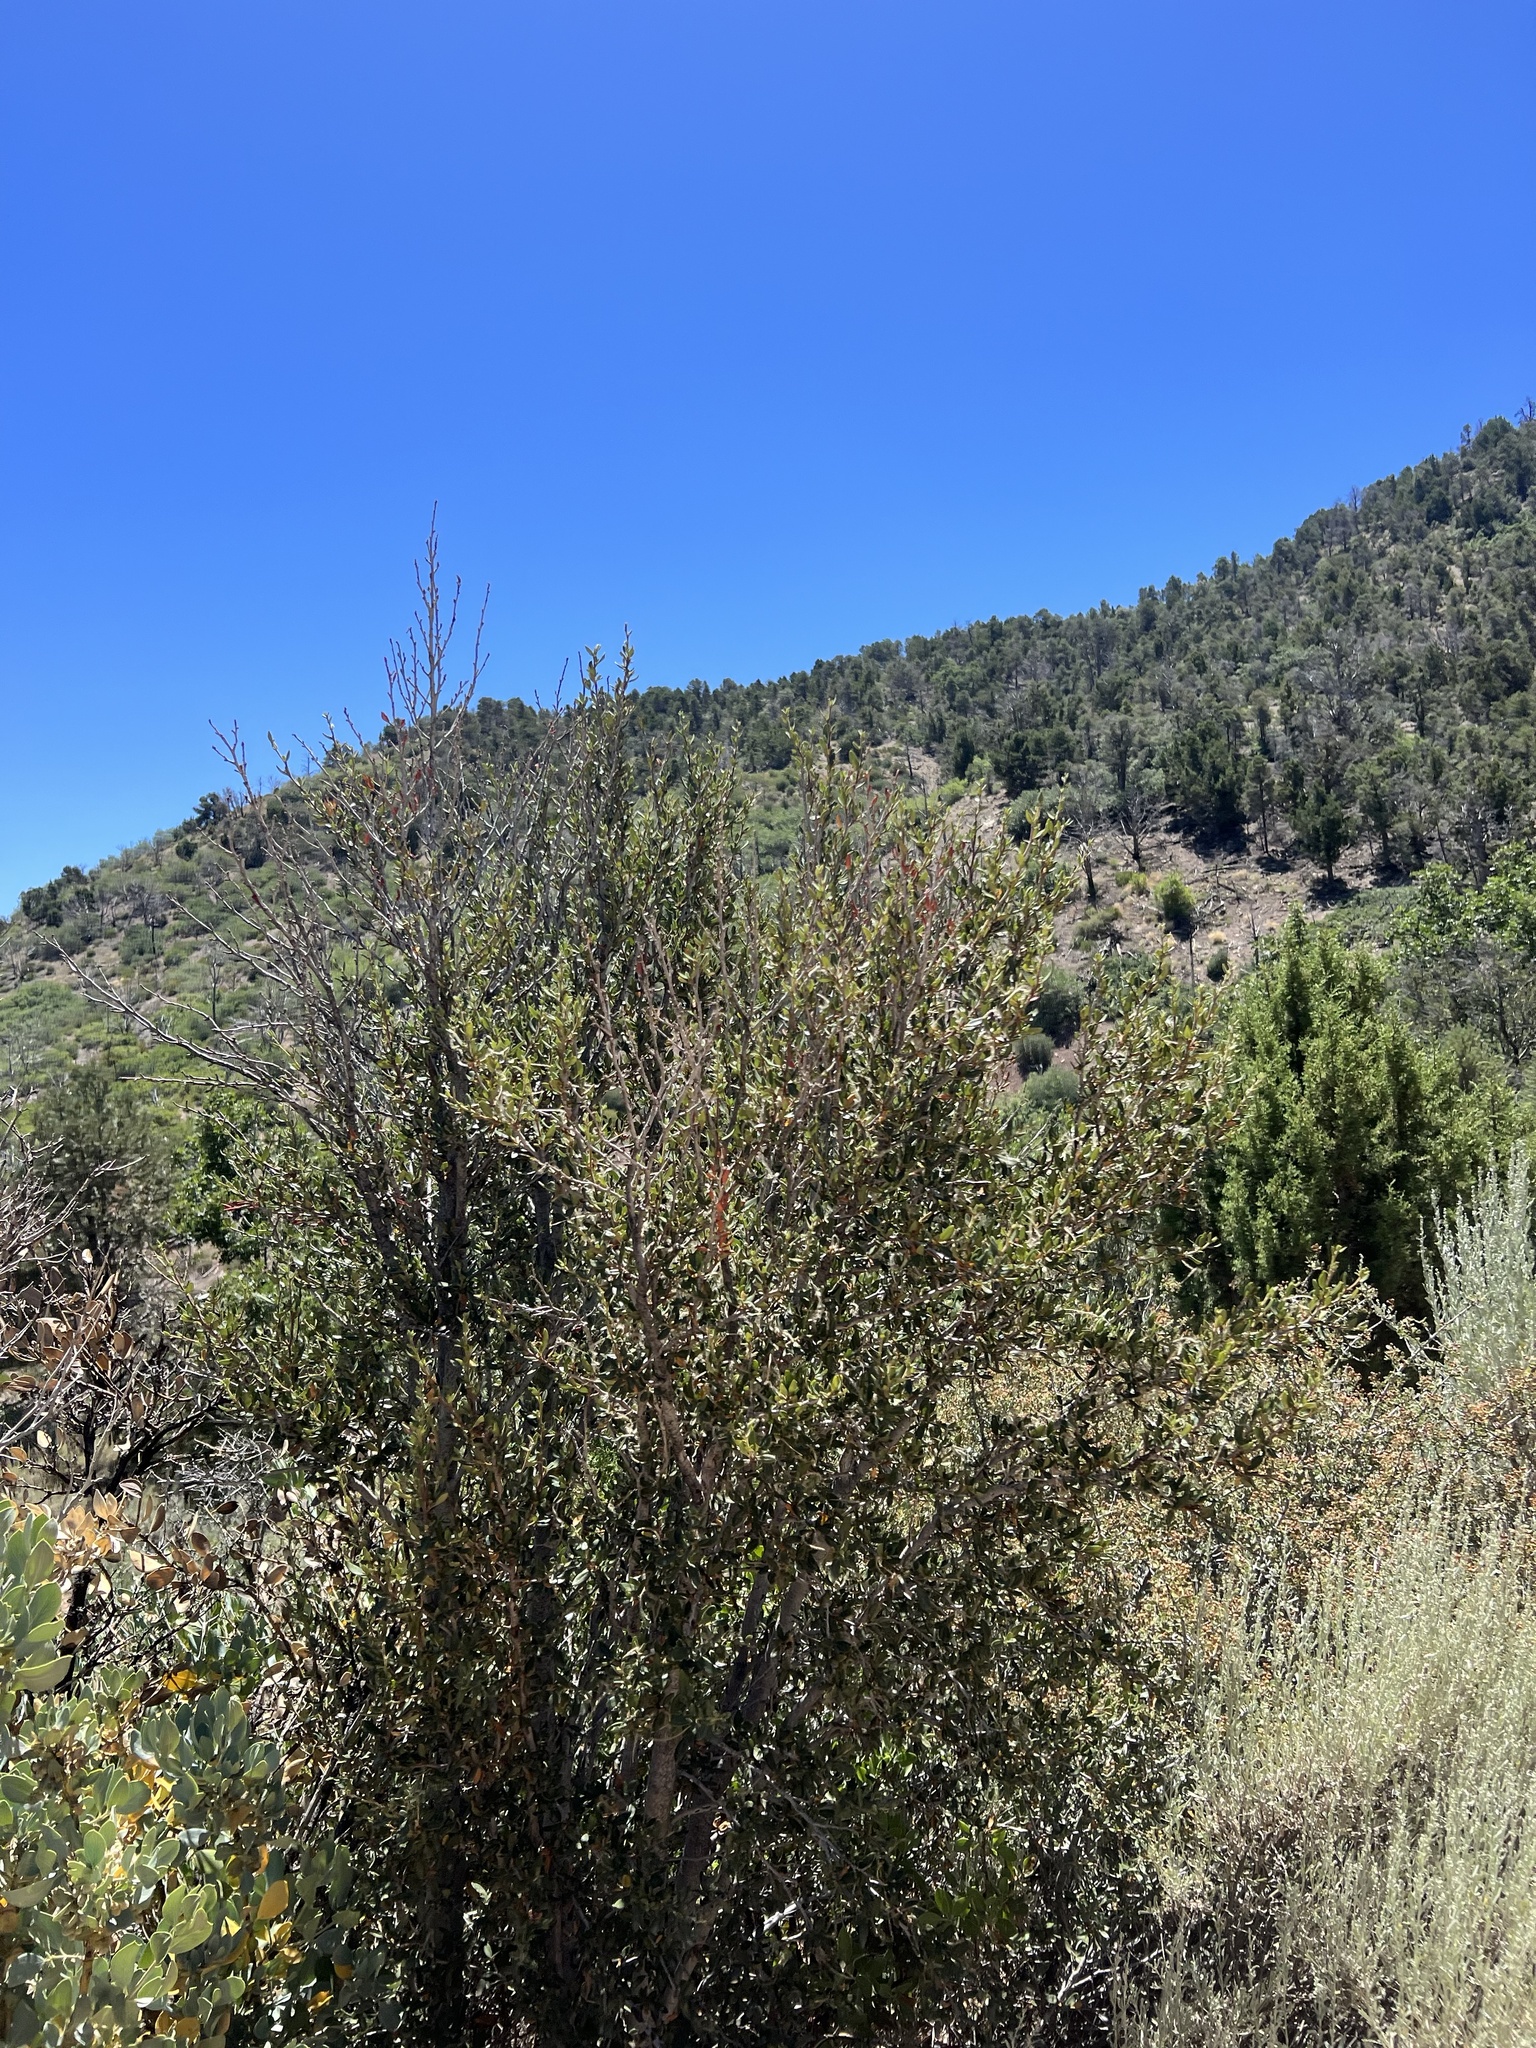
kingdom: Plantae
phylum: Tracheophyta
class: Magnoliopsida
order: Rosales
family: Rosaceae
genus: Cercocarpus
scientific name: Cercocarpus ledifolius
